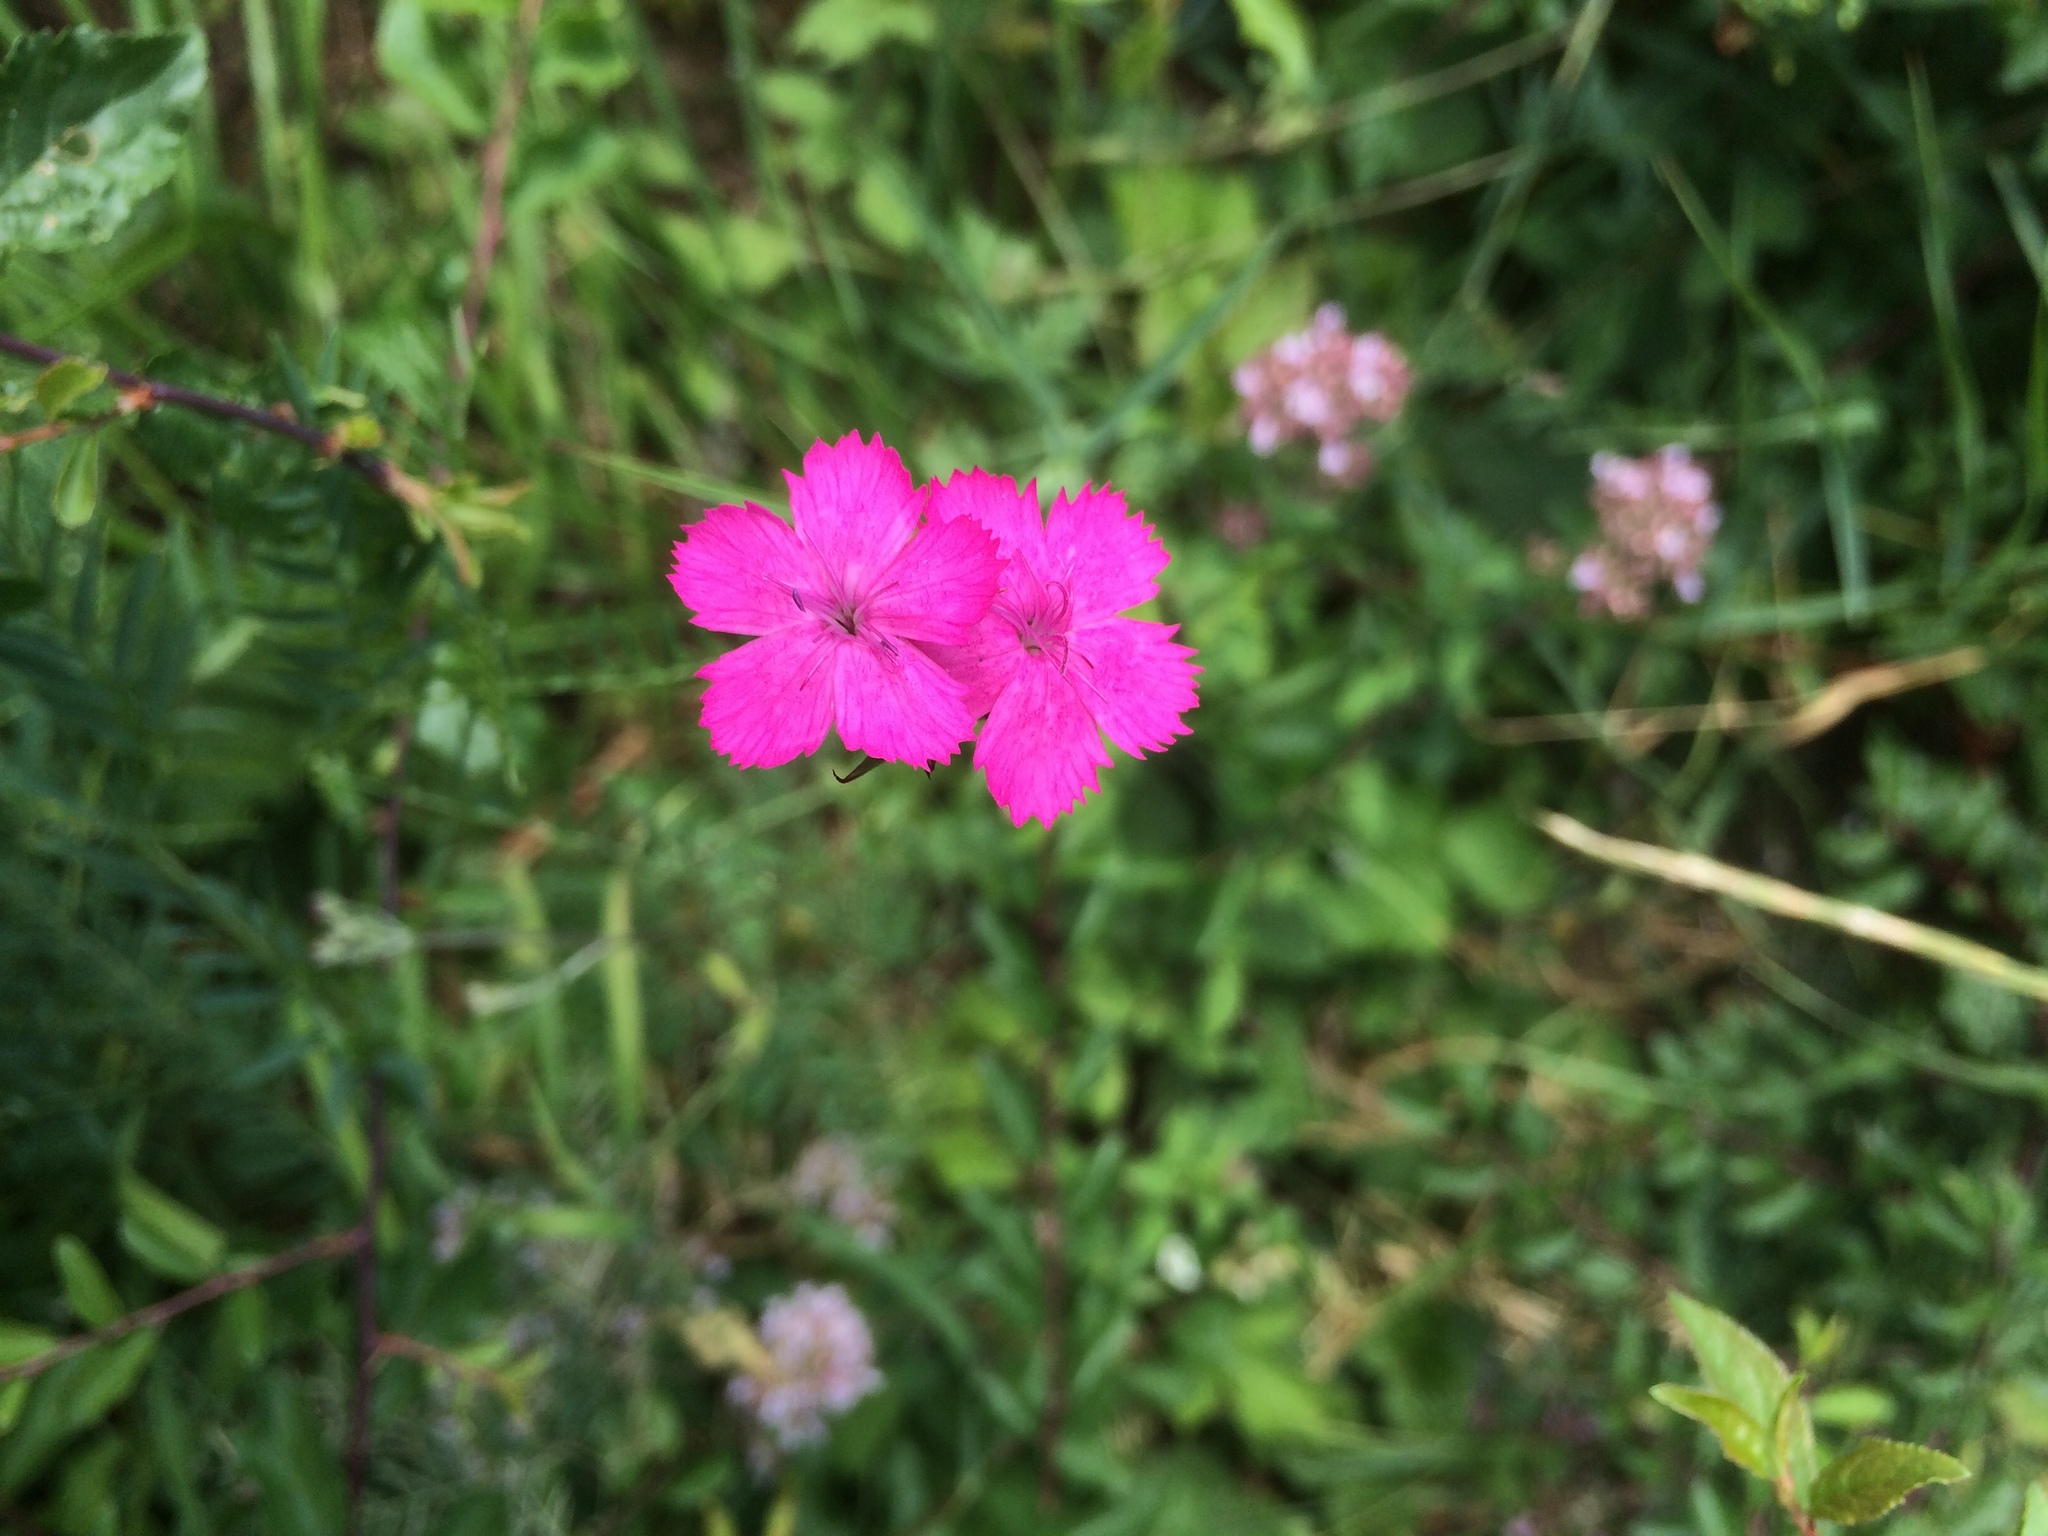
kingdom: Plantae
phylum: Tracheophyta
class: Magnoliopsida
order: Caryophyllales
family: Caryophyllaceae
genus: Dianthus
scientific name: Dianthus carthusianorum
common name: Carthusian pink
